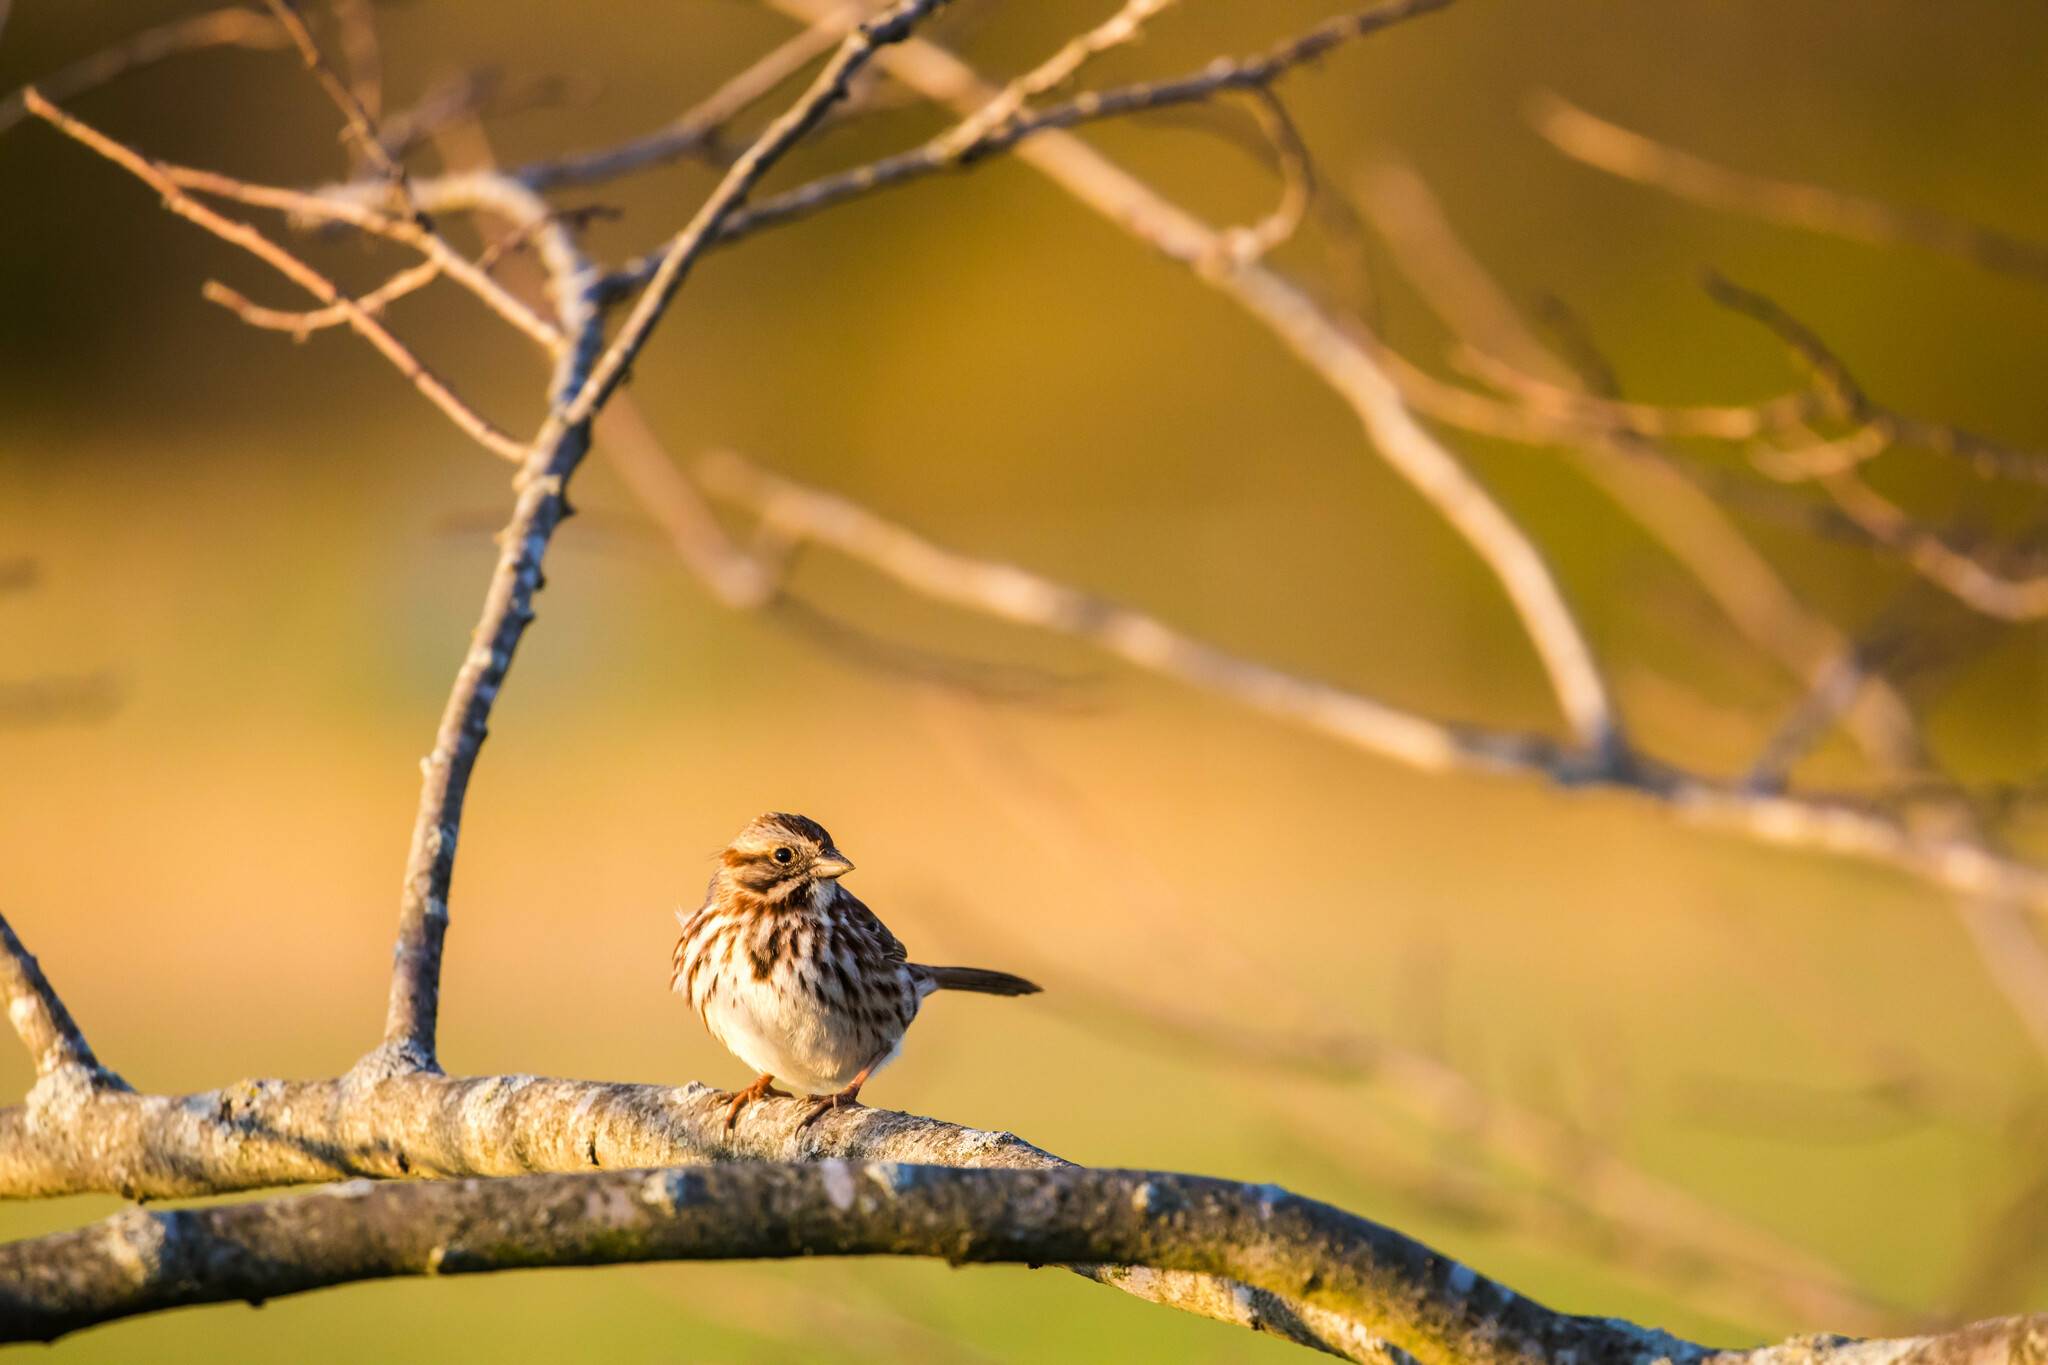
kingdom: Animalia
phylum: Chordata
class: Aves
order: Passeriformes
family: Passerellidae
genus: Melospiza
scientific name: Melospiza melodia
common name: Song sparrow
